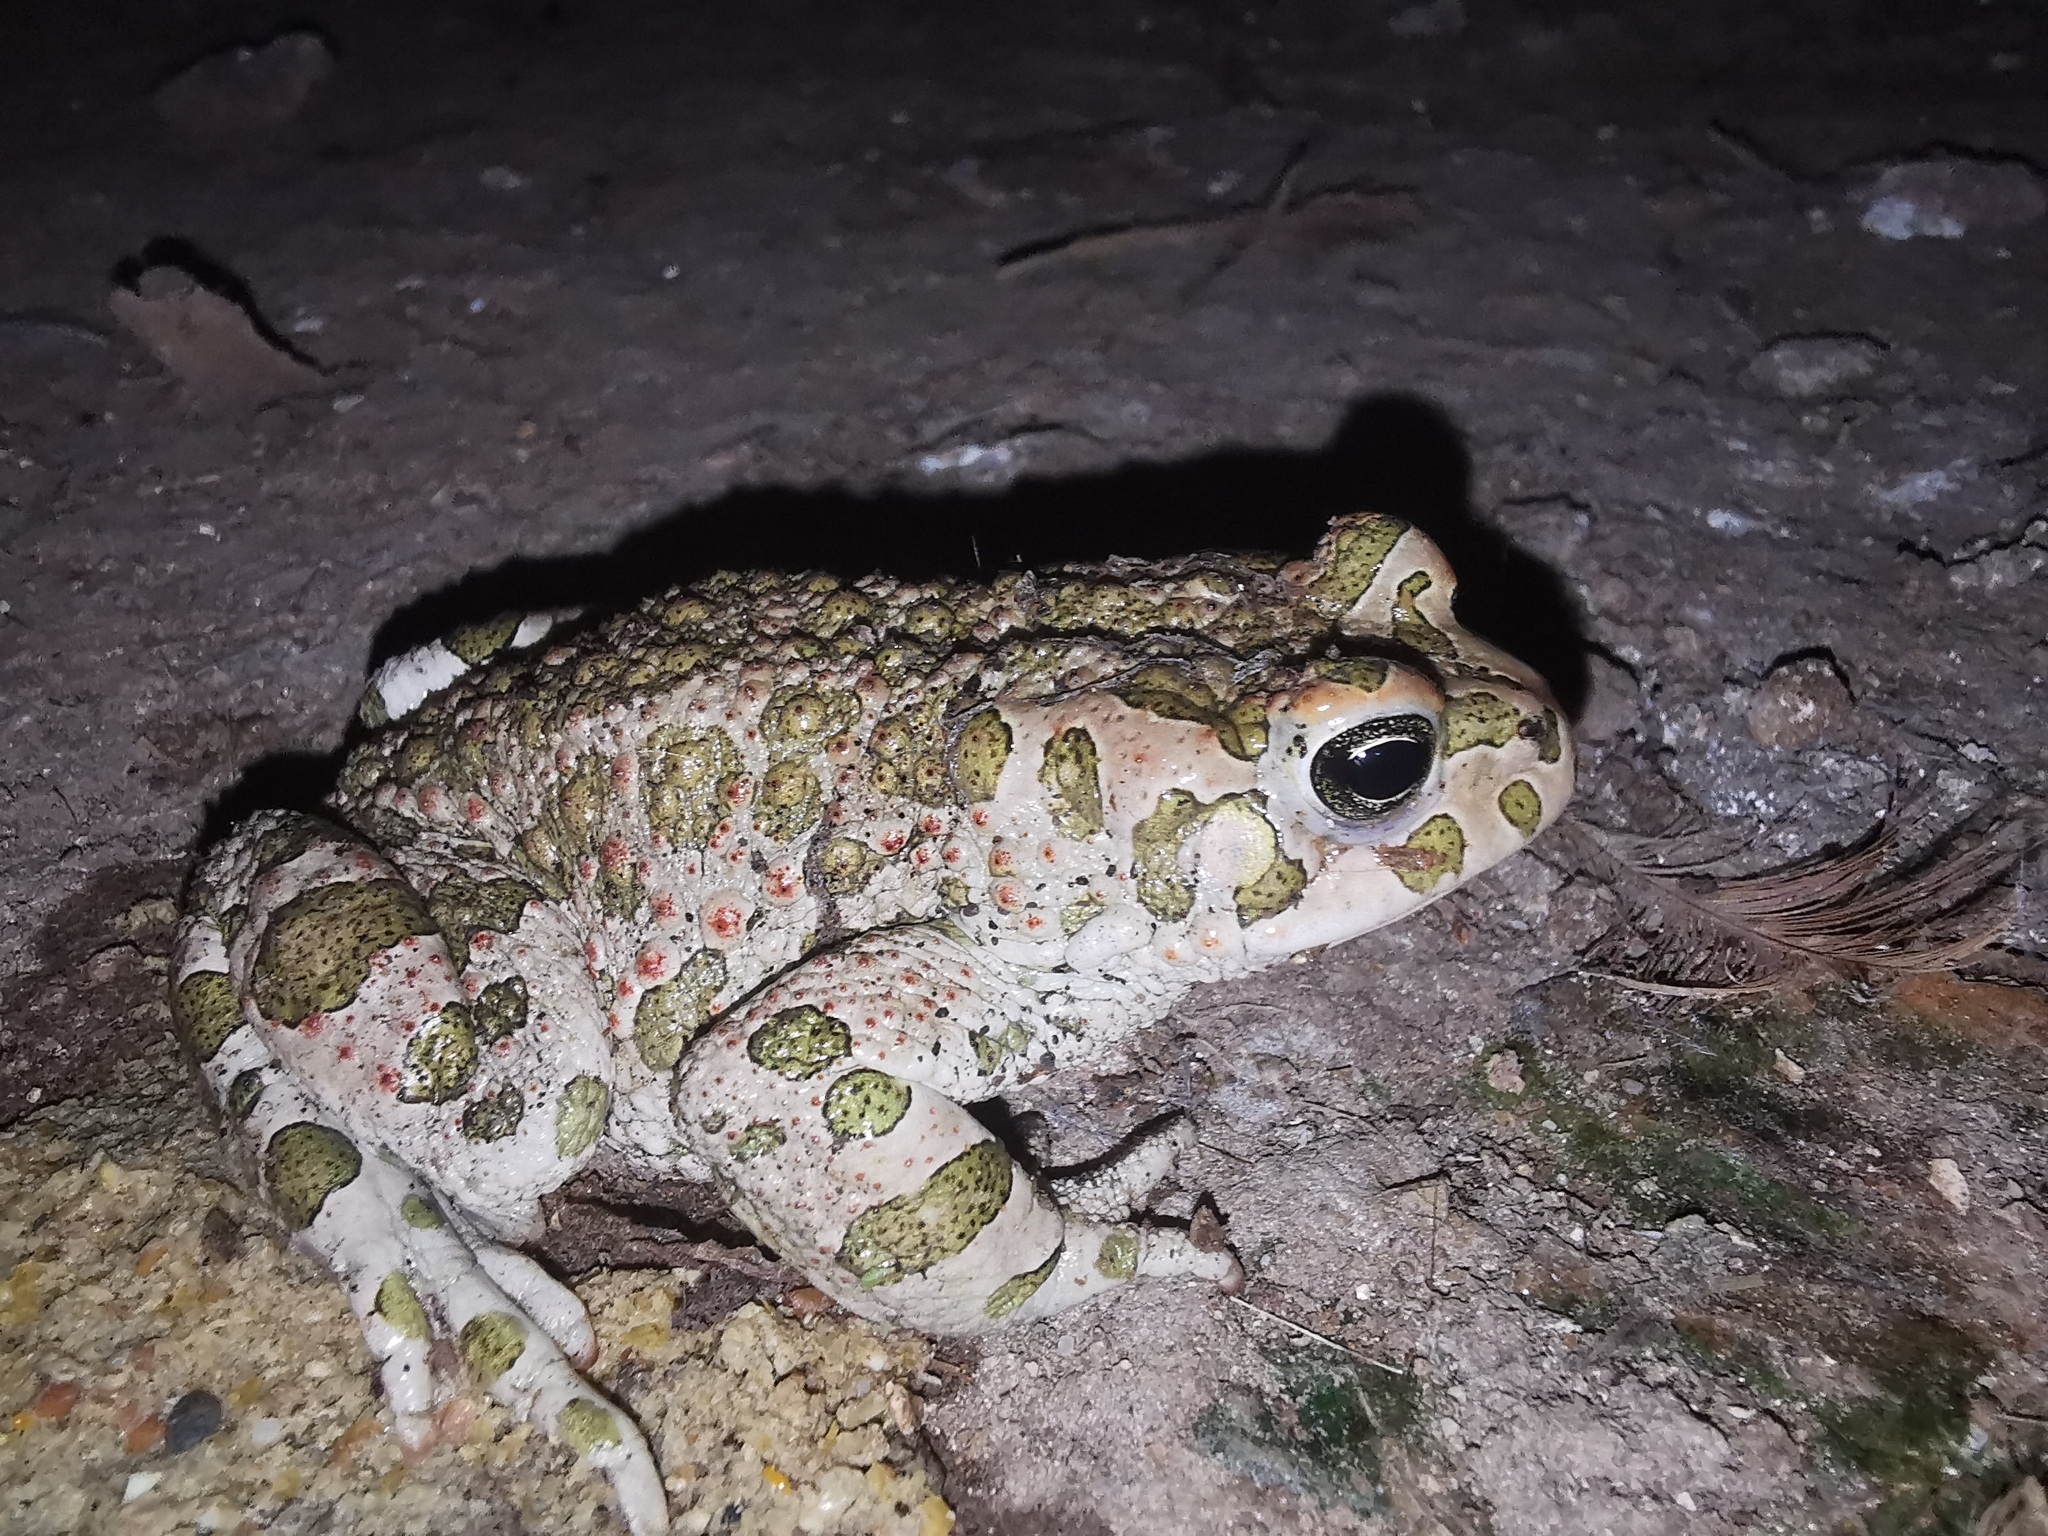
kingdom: Animalia
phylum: Chordata
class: Amphibia
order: Anura
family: Bufonidae
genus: Bufotes
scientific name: Bufotes viridis
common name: European green toad
